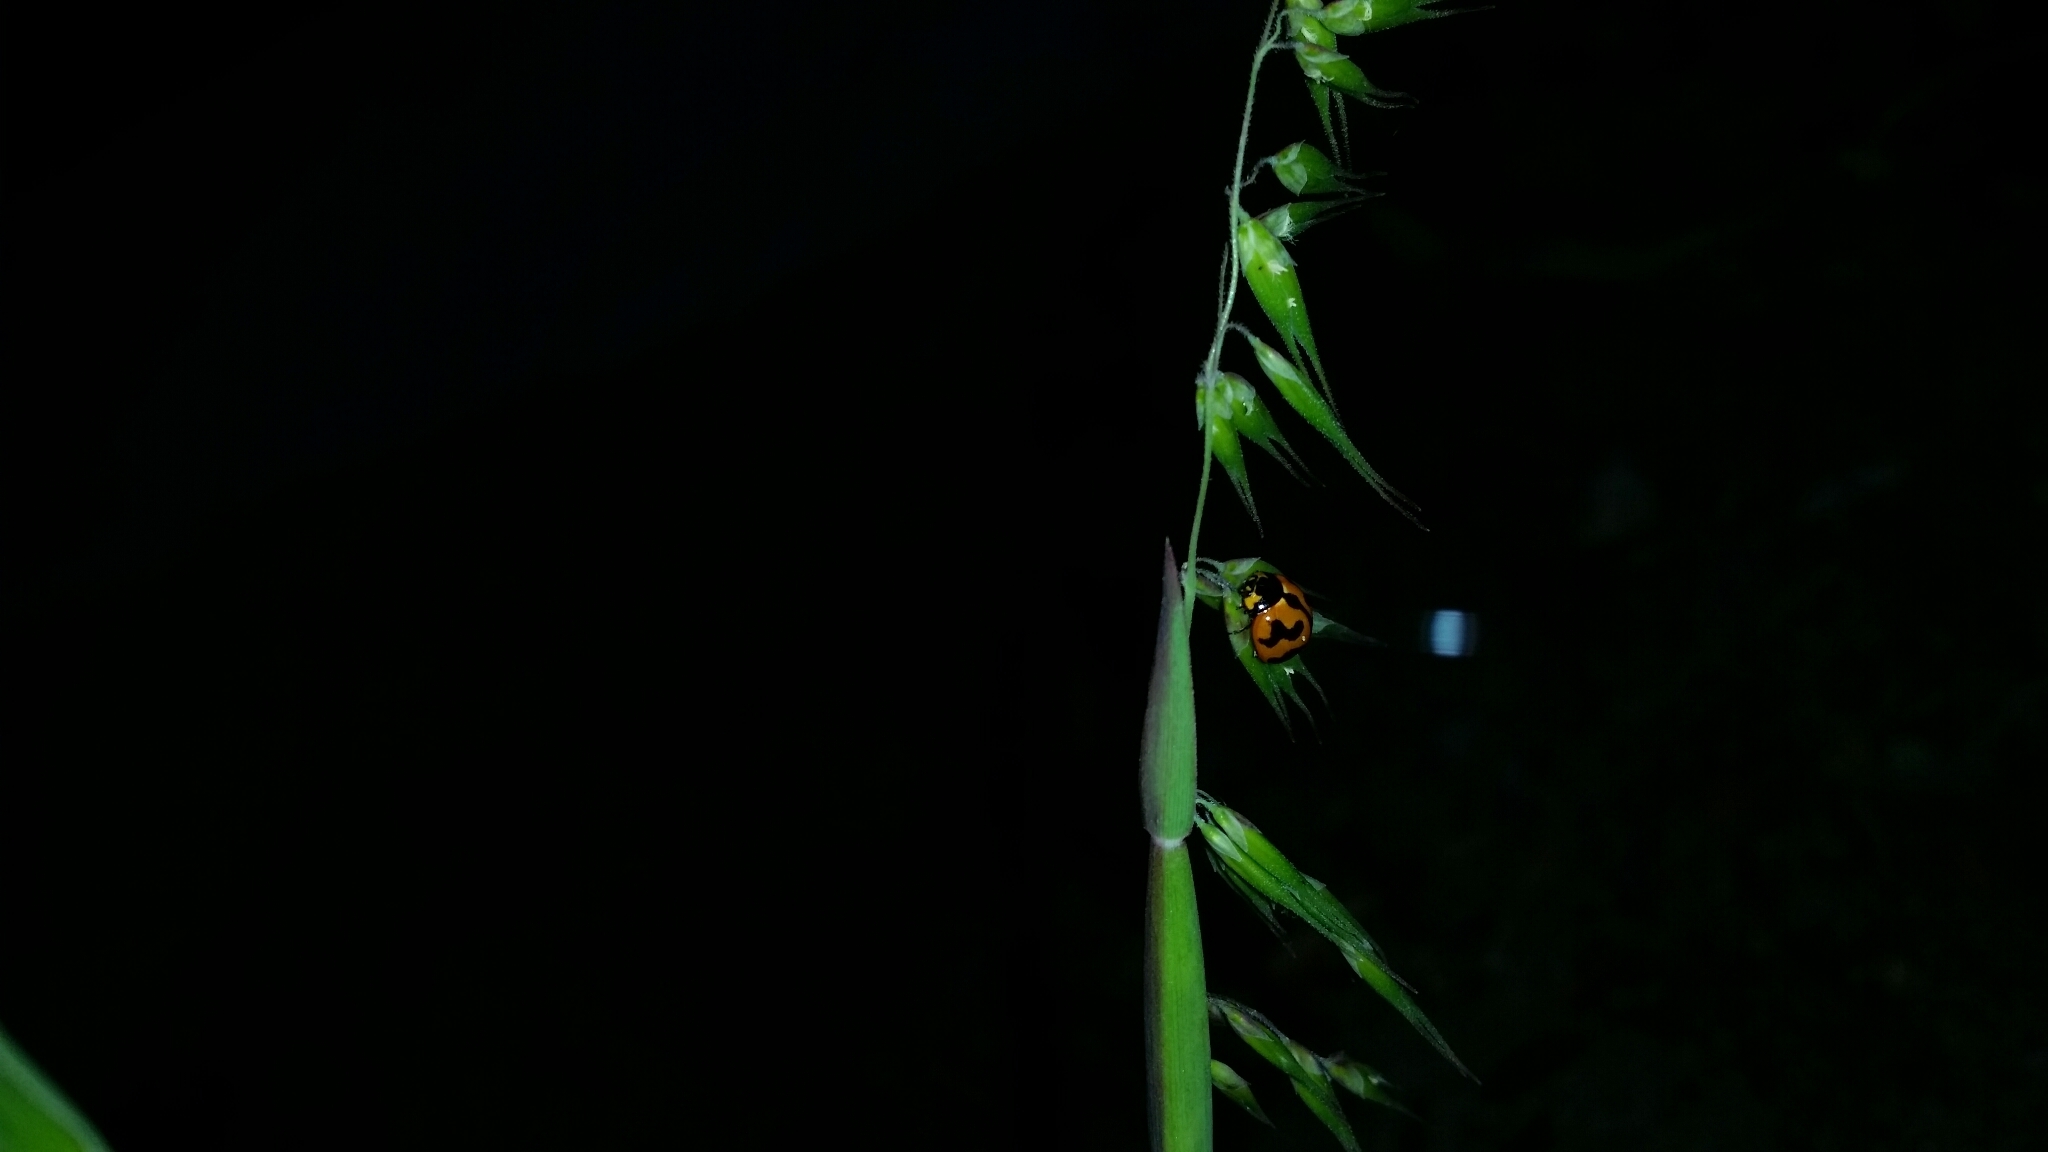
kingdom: Animalia
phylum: Arthropoda
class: Insecta
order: Coleoptera
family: Coccinellidae
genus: Coccinella
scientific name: Coccinella transversalis
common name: Transverse lady beetle
